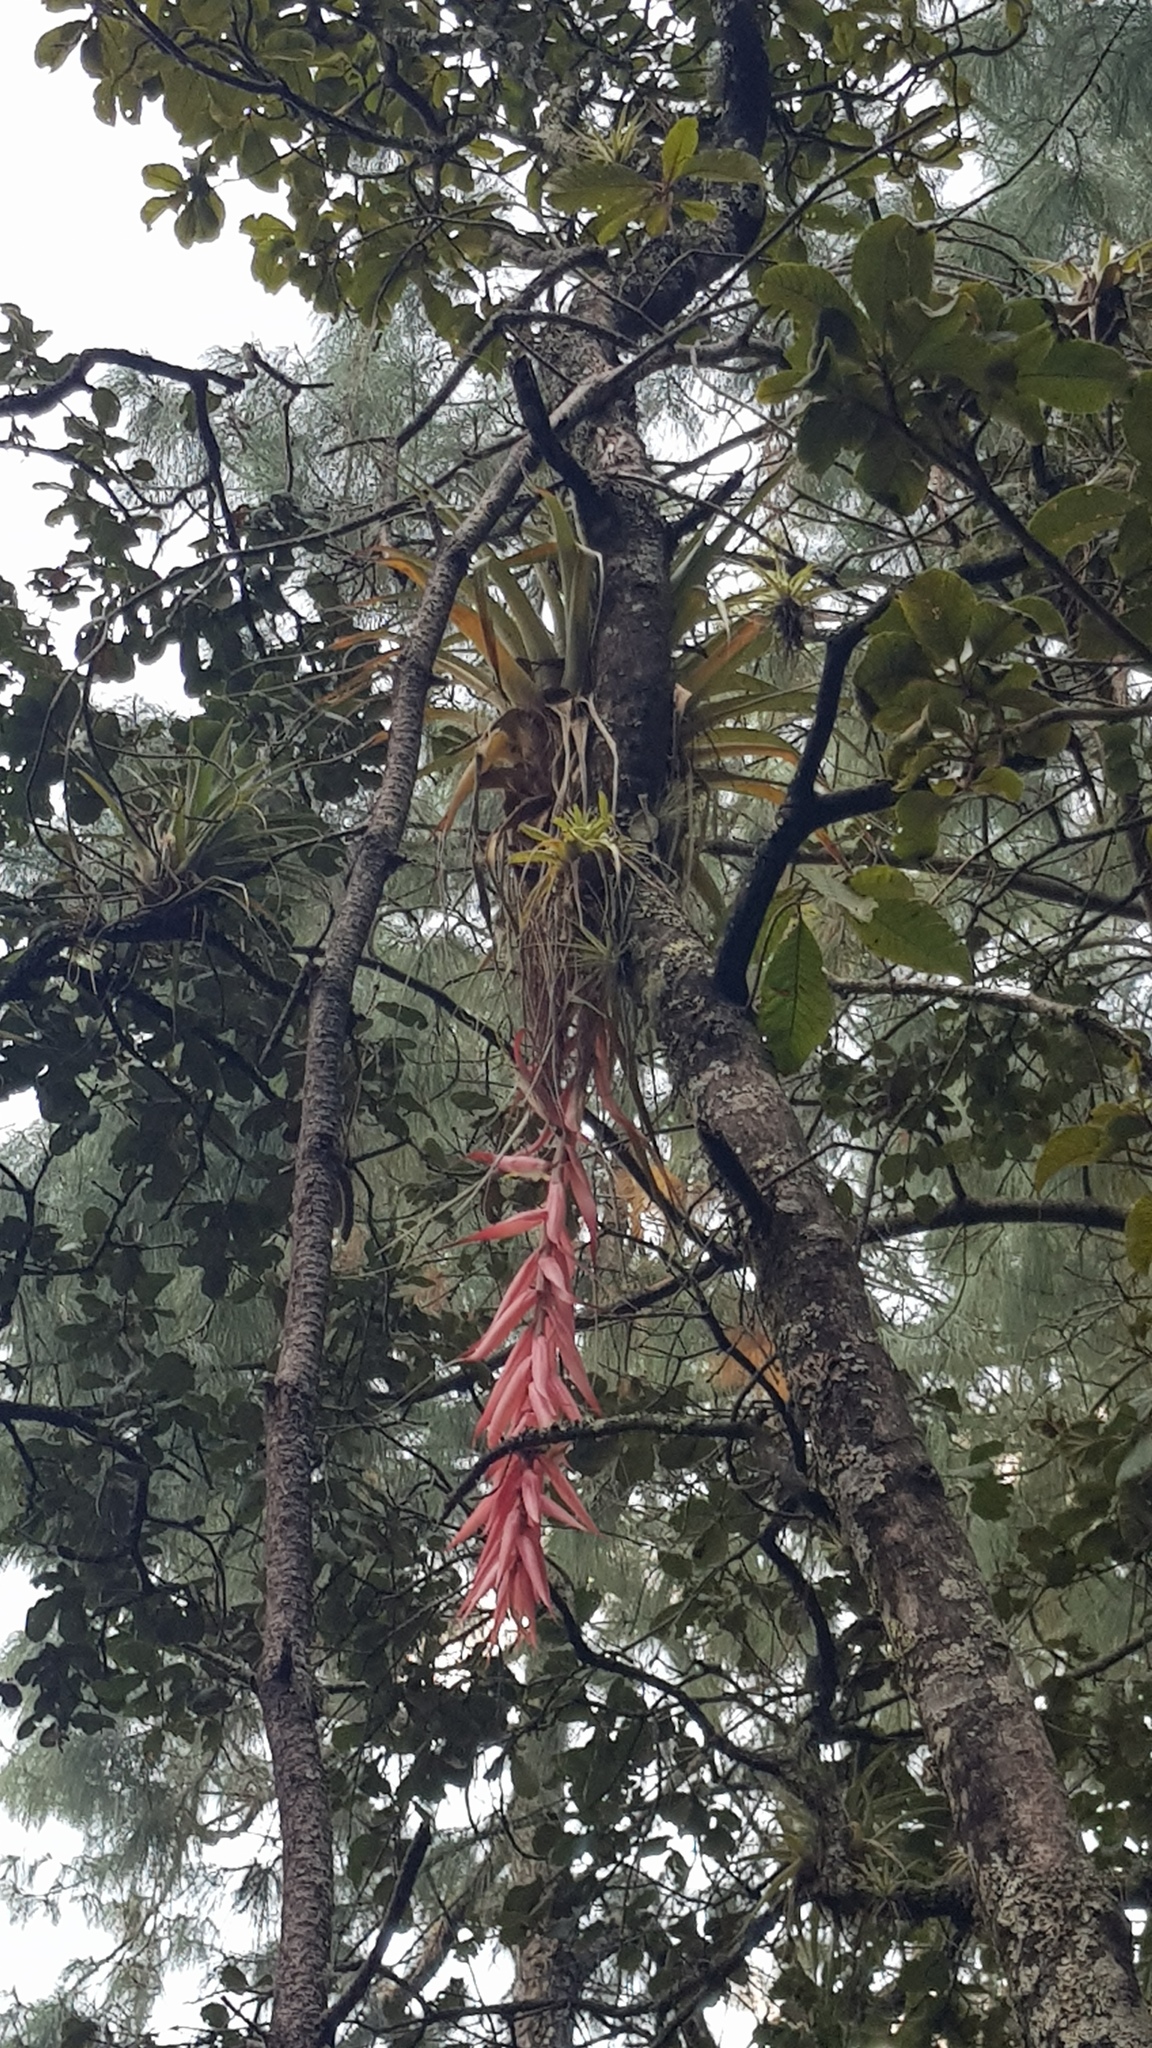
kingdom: Plantae
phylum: Tracheophyta
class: Liliopsida
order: Poales
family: Bromeliaceae
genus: Tillandsia
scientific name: Tillandsia prodigiosa
